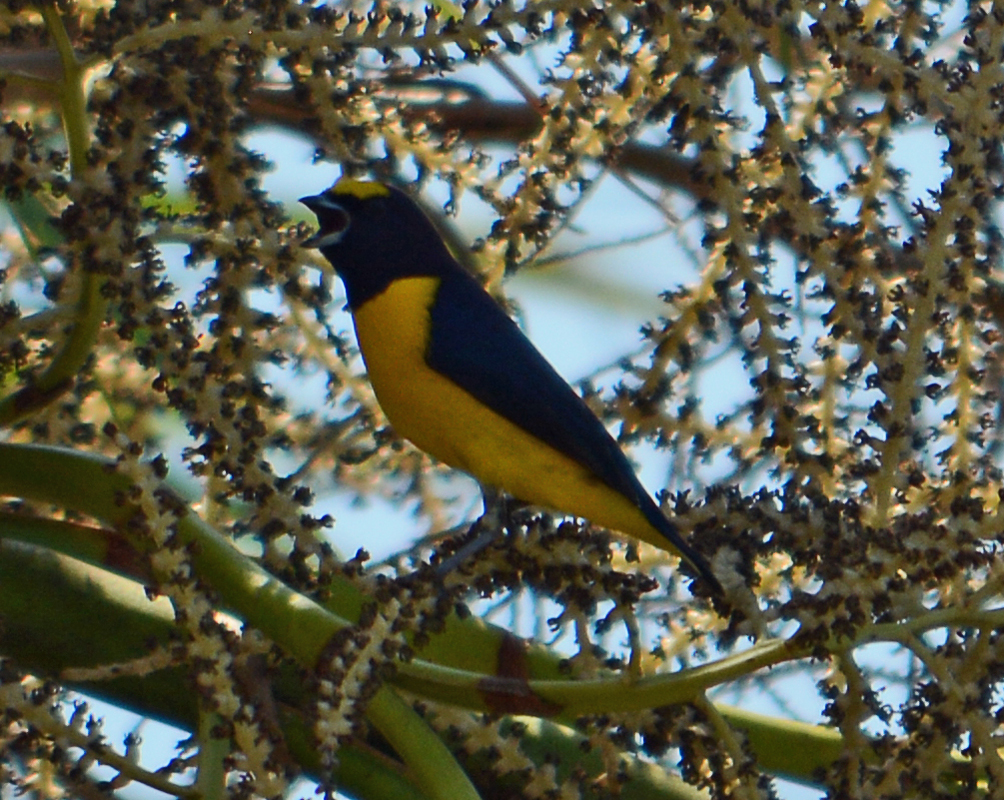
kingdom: Animalia
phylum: Chordata
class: Aves
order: Passeriformes
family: Fringillidae
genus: Euphonia
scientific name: Euphonia affinis
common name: Scrub euphonia
